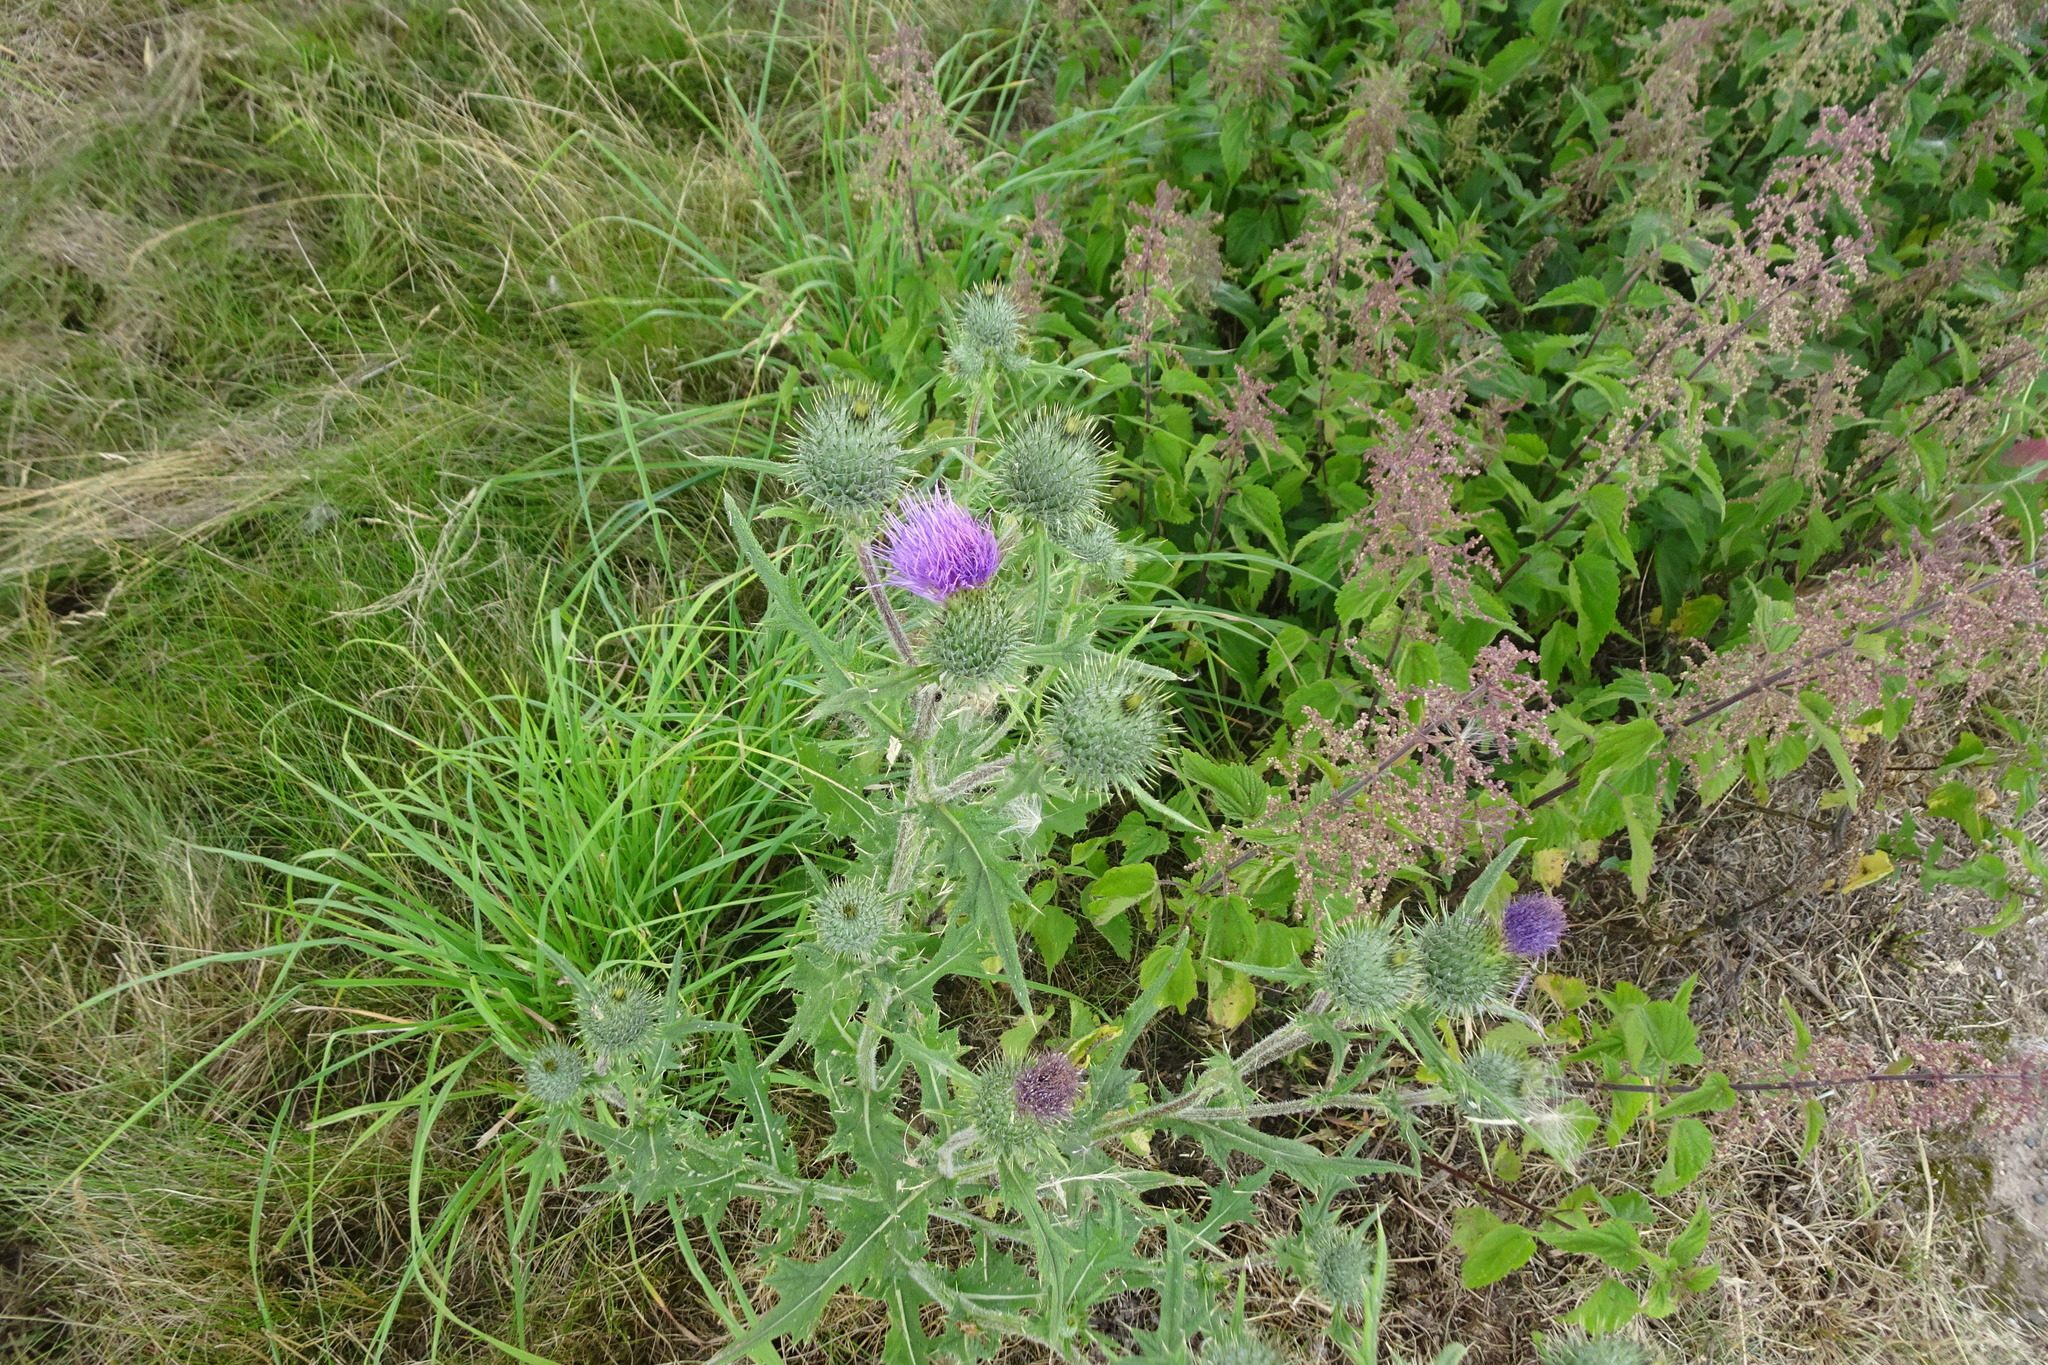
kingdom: Plantae
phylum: Tracheophyta
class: Magnoliopsida
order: Asterales
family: Asteraceae
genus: Cirsium
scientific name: Cirsium vulgare
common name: Bull thistle
